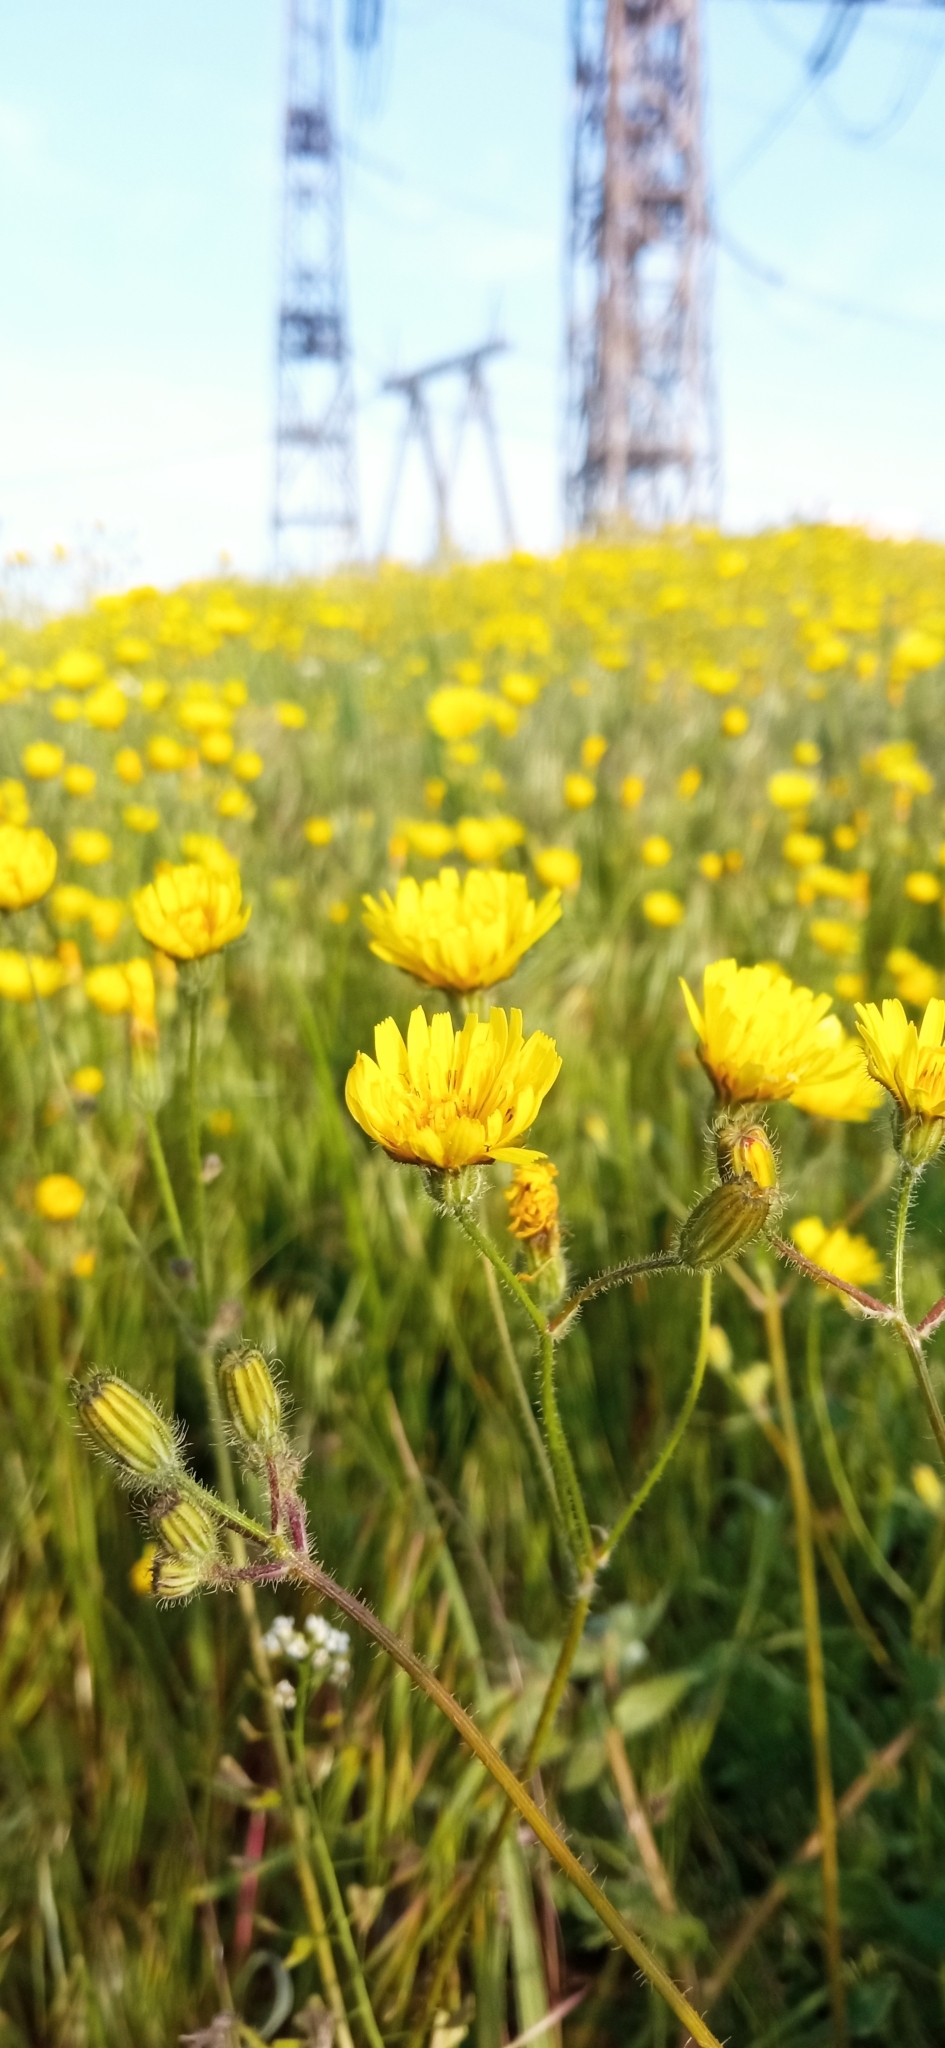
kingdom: Plantae
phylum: Tracheophyta
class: Magnoliopsida
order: Asterales
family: Asteraceae
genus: Crepis
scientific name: Crepis sancta
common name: Hawk's-beard
